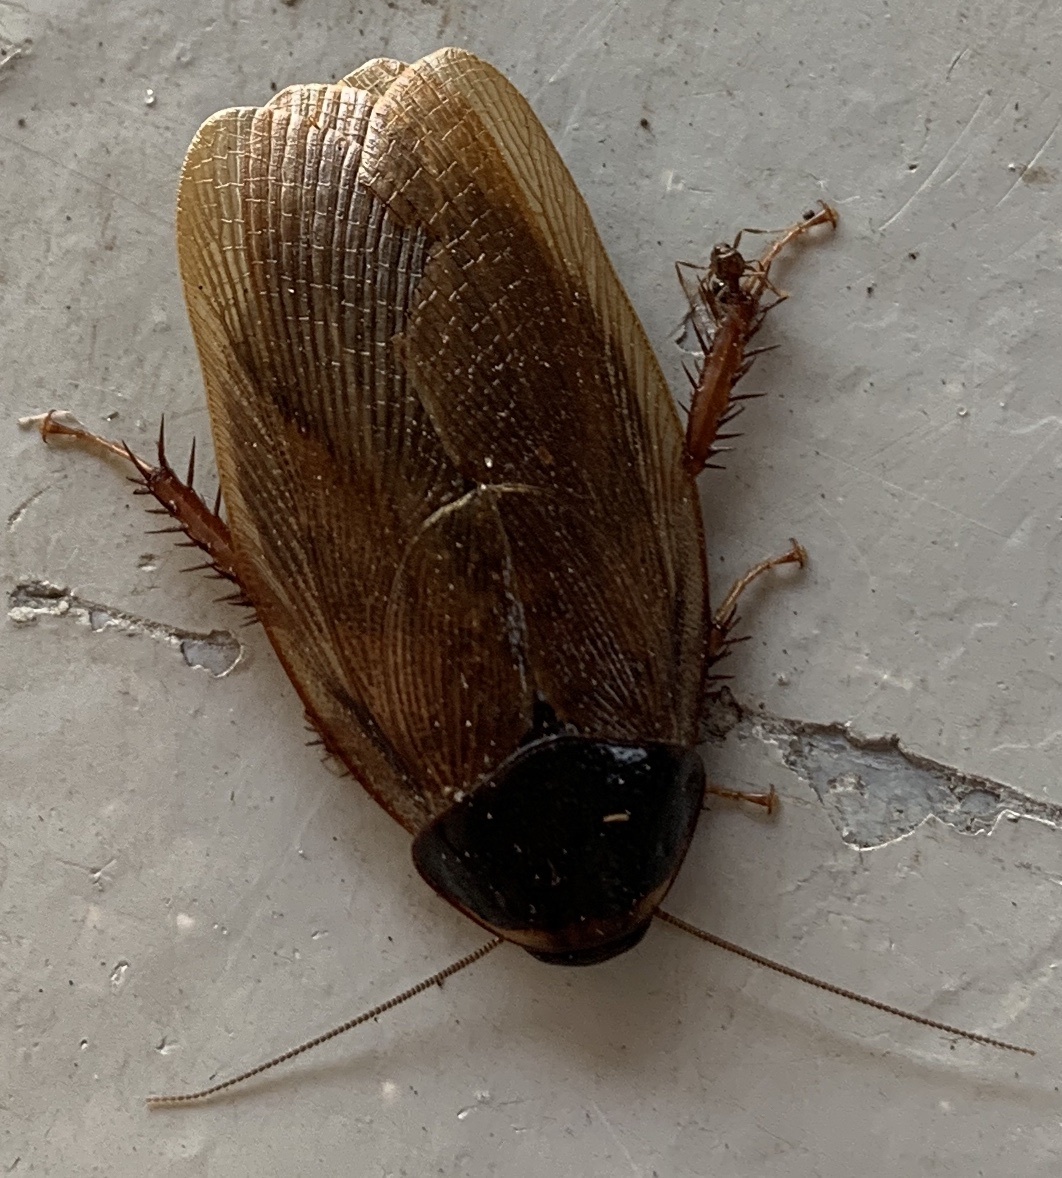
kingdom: Animalia
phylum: Arthropoda
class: Insecta
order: Blattodea
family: Blaberidae
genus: Pycnoscelus
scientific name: Pycnoscelus surinamensis
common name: Surinam cockroach
